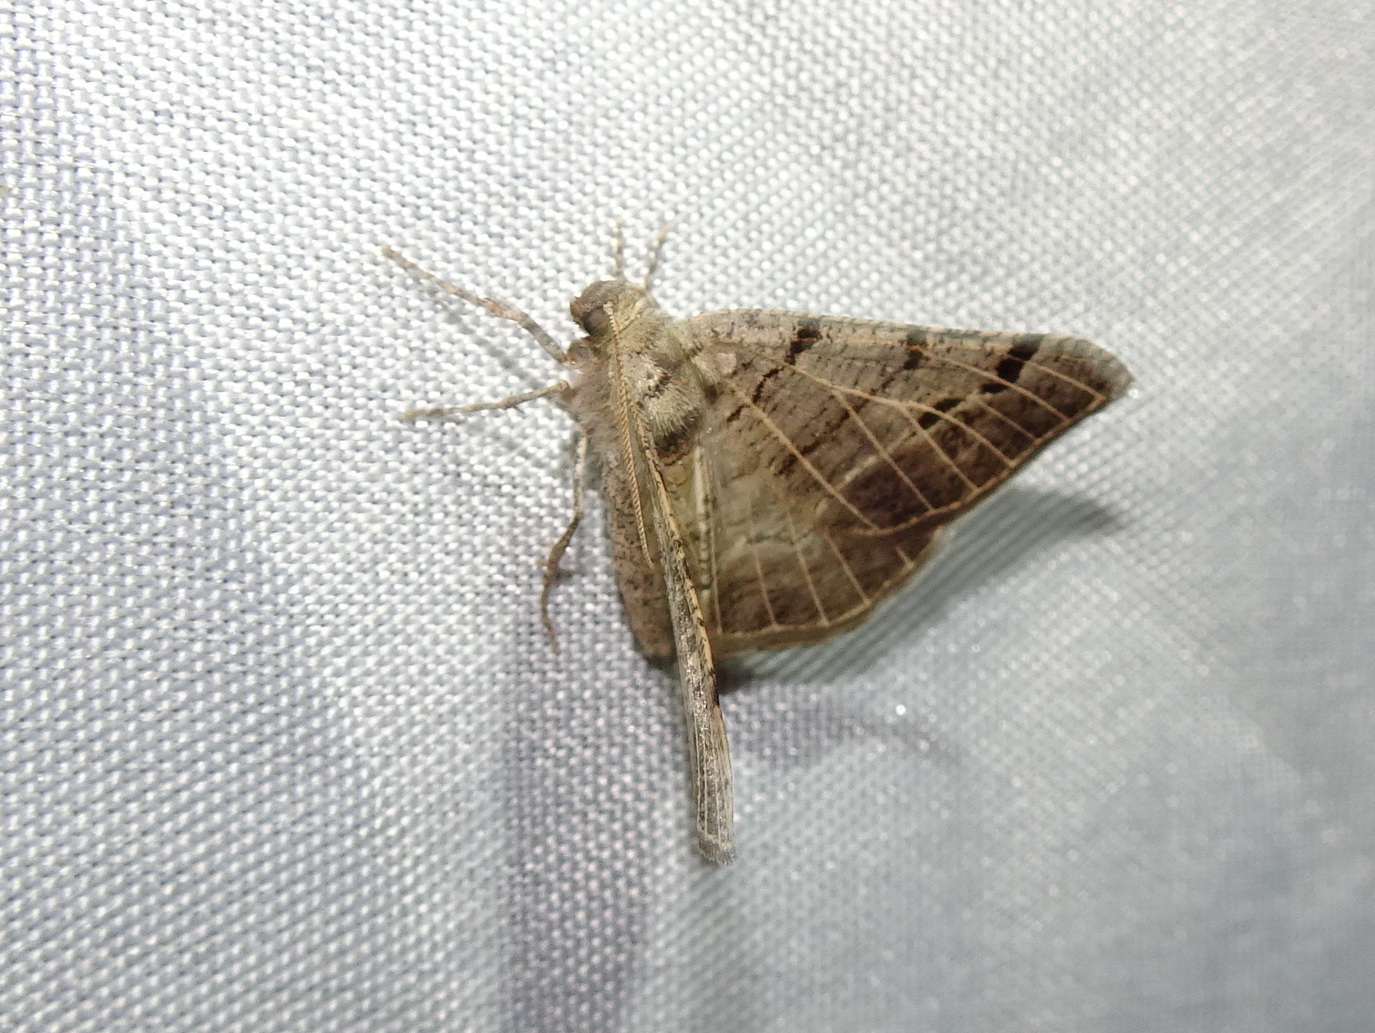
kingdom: Animalia
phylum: Arthropoda
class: Insecta
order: Lepidoptera
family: Geometridae
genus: Isturgia
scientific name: Isturgia dislocaria
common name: Pale-viened enconista
